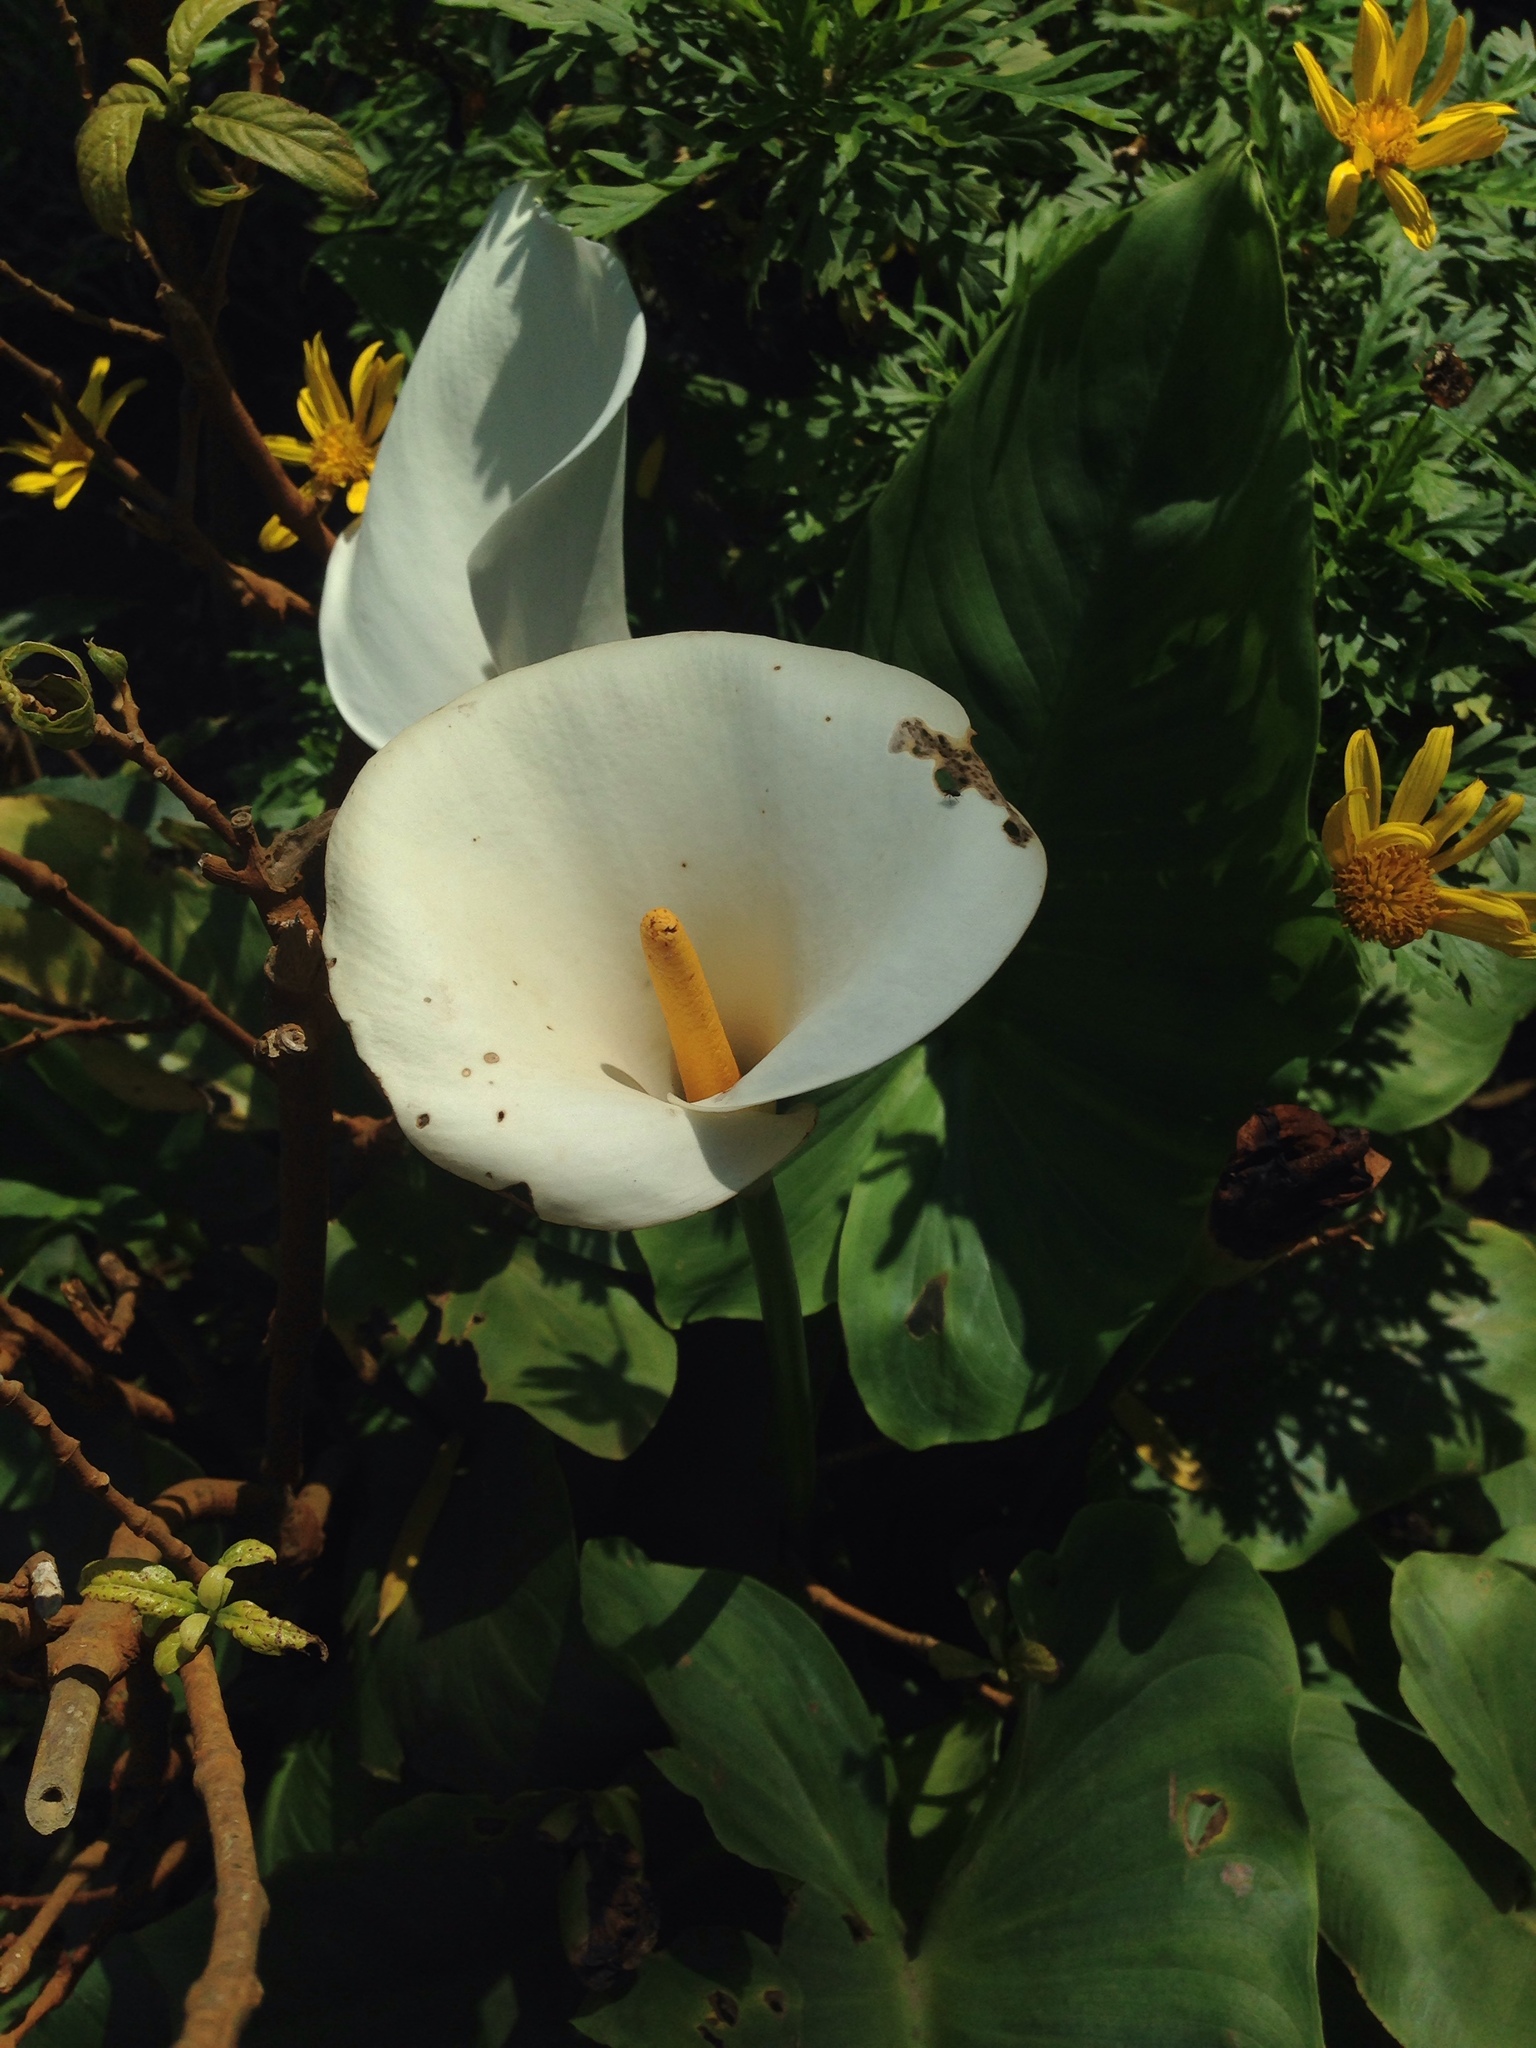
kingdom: Plantae
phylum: Tracheophyta
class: Liliopsida
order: Alismatales
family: Araceae
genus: Zantedeschia
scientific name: Zantedeschia aethiopica
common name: Altar-lily
